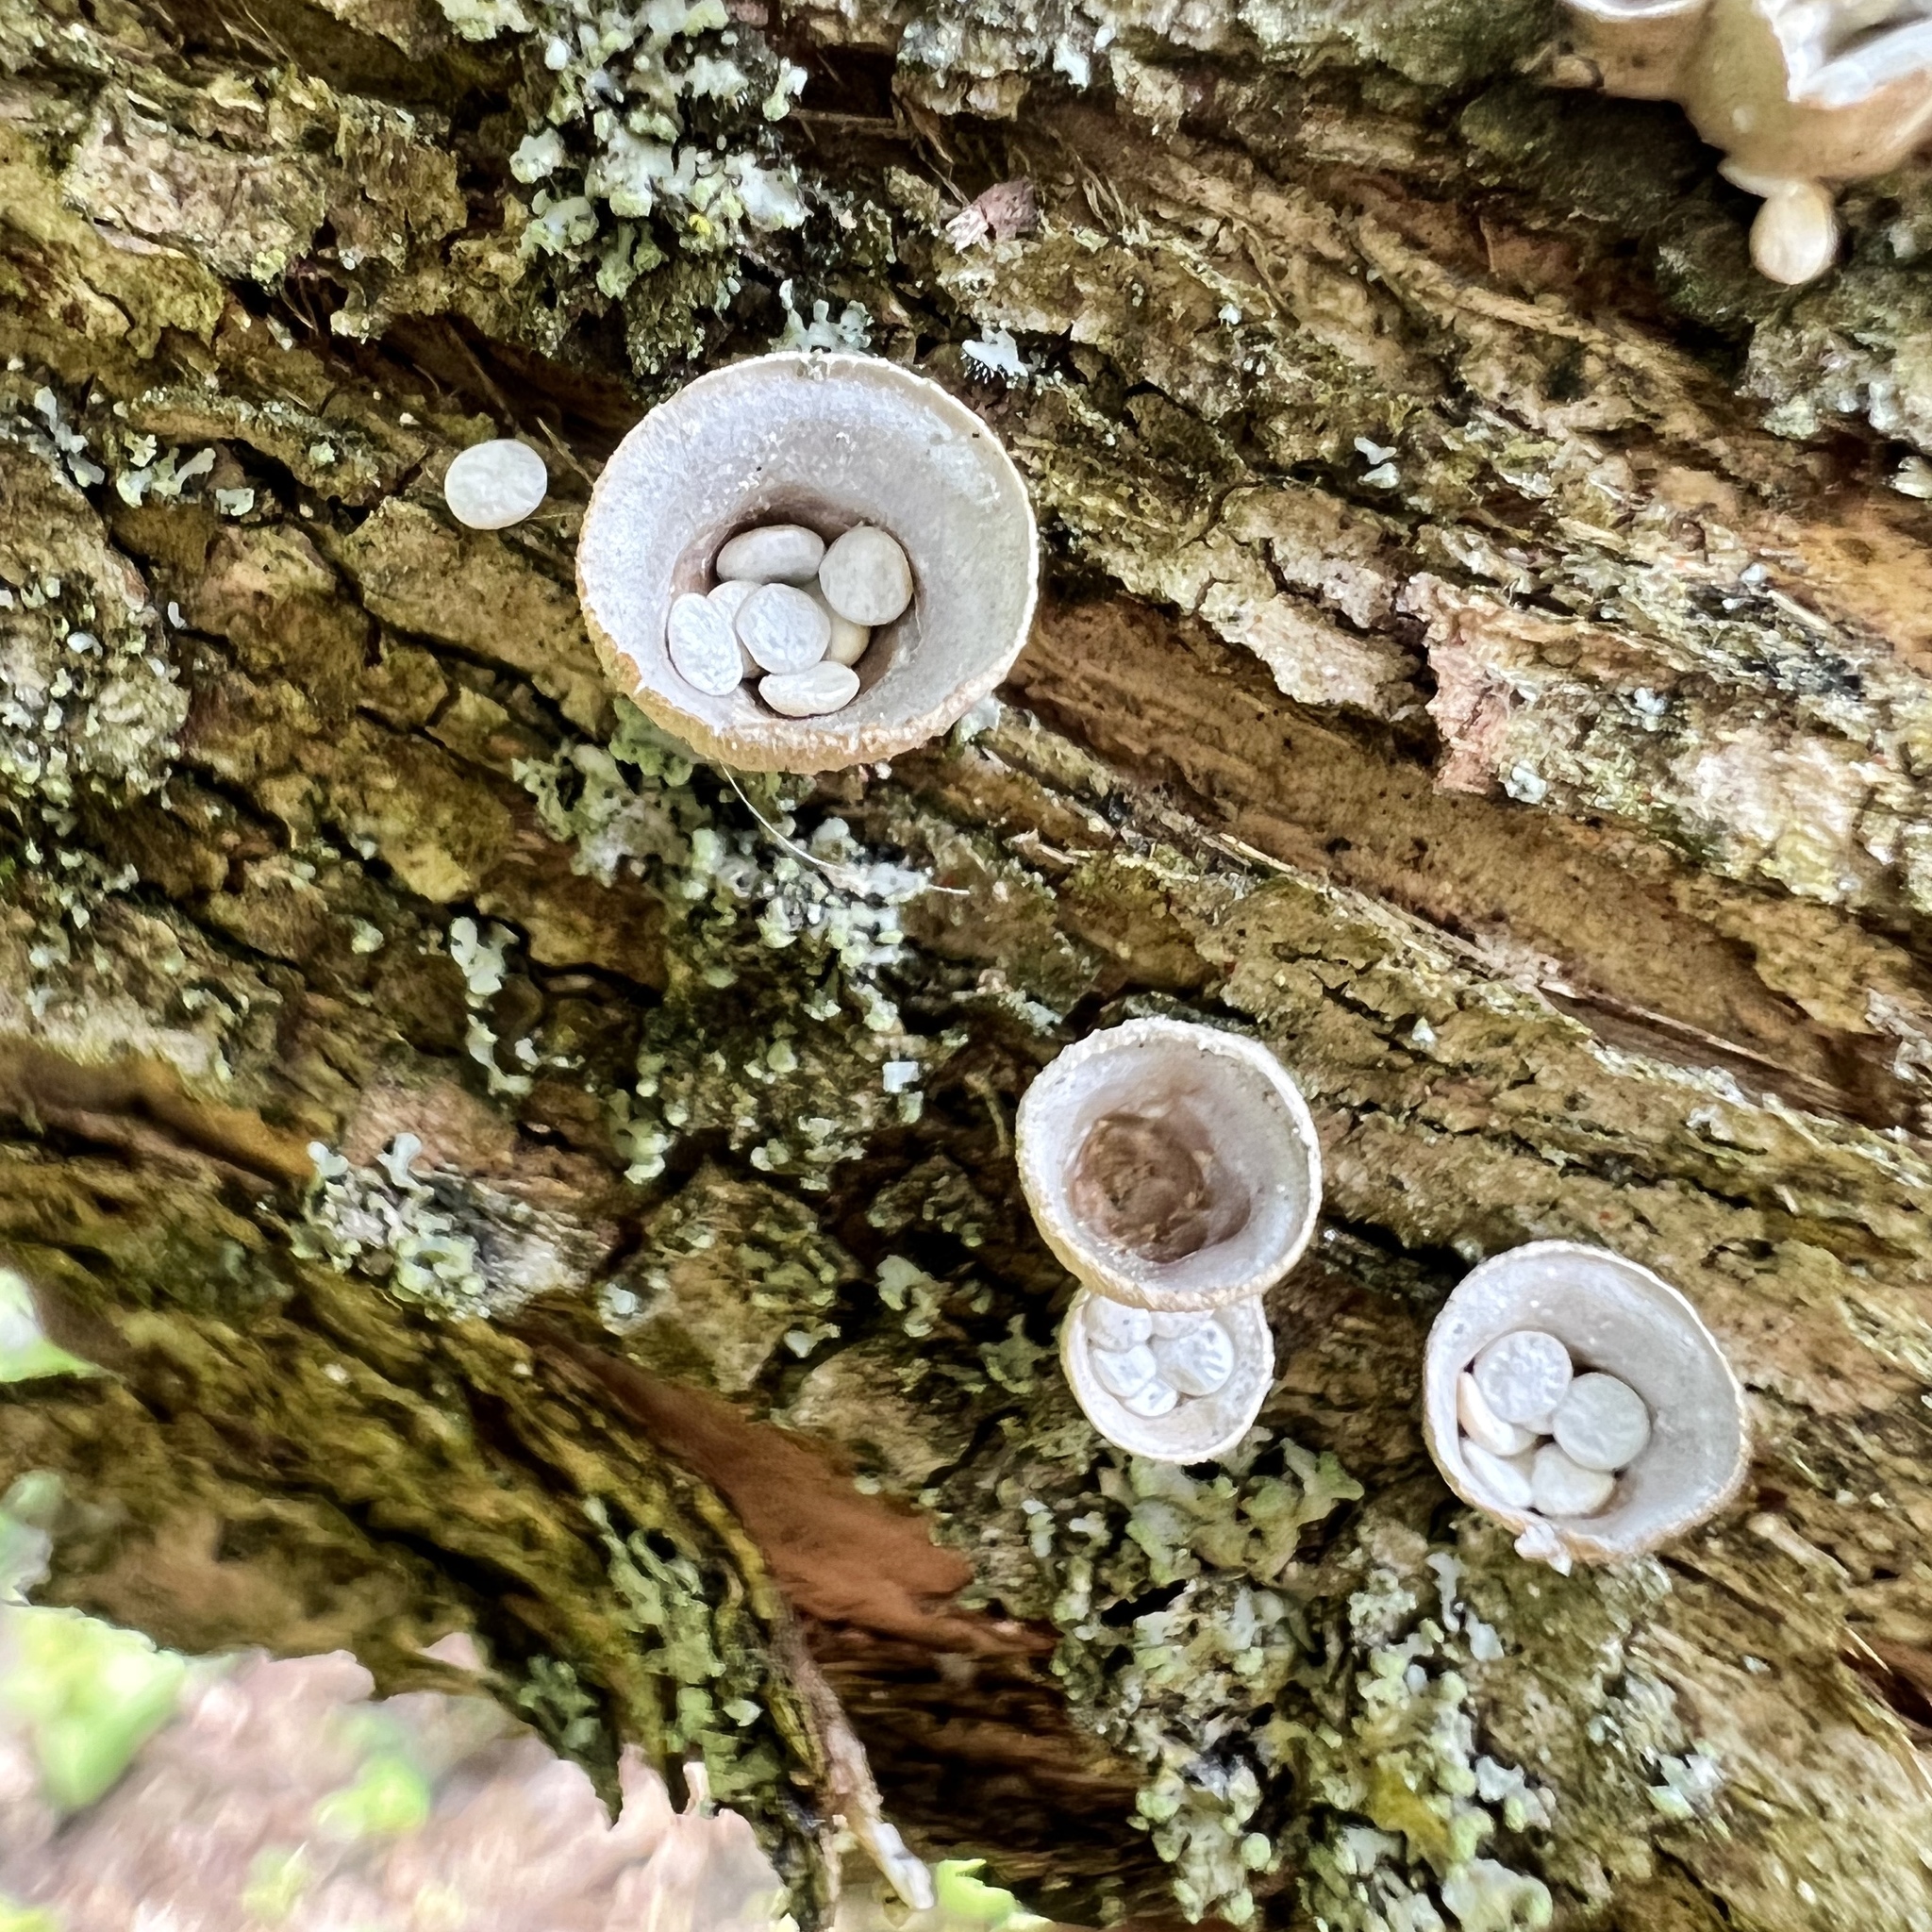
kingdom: Fungi
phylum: Basidiomycota
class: Agaricomycetes
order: Agaricales
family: Nidulariaceae
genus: Crucibulum
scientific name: Crucibulum laeve
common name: Common bird's nest
